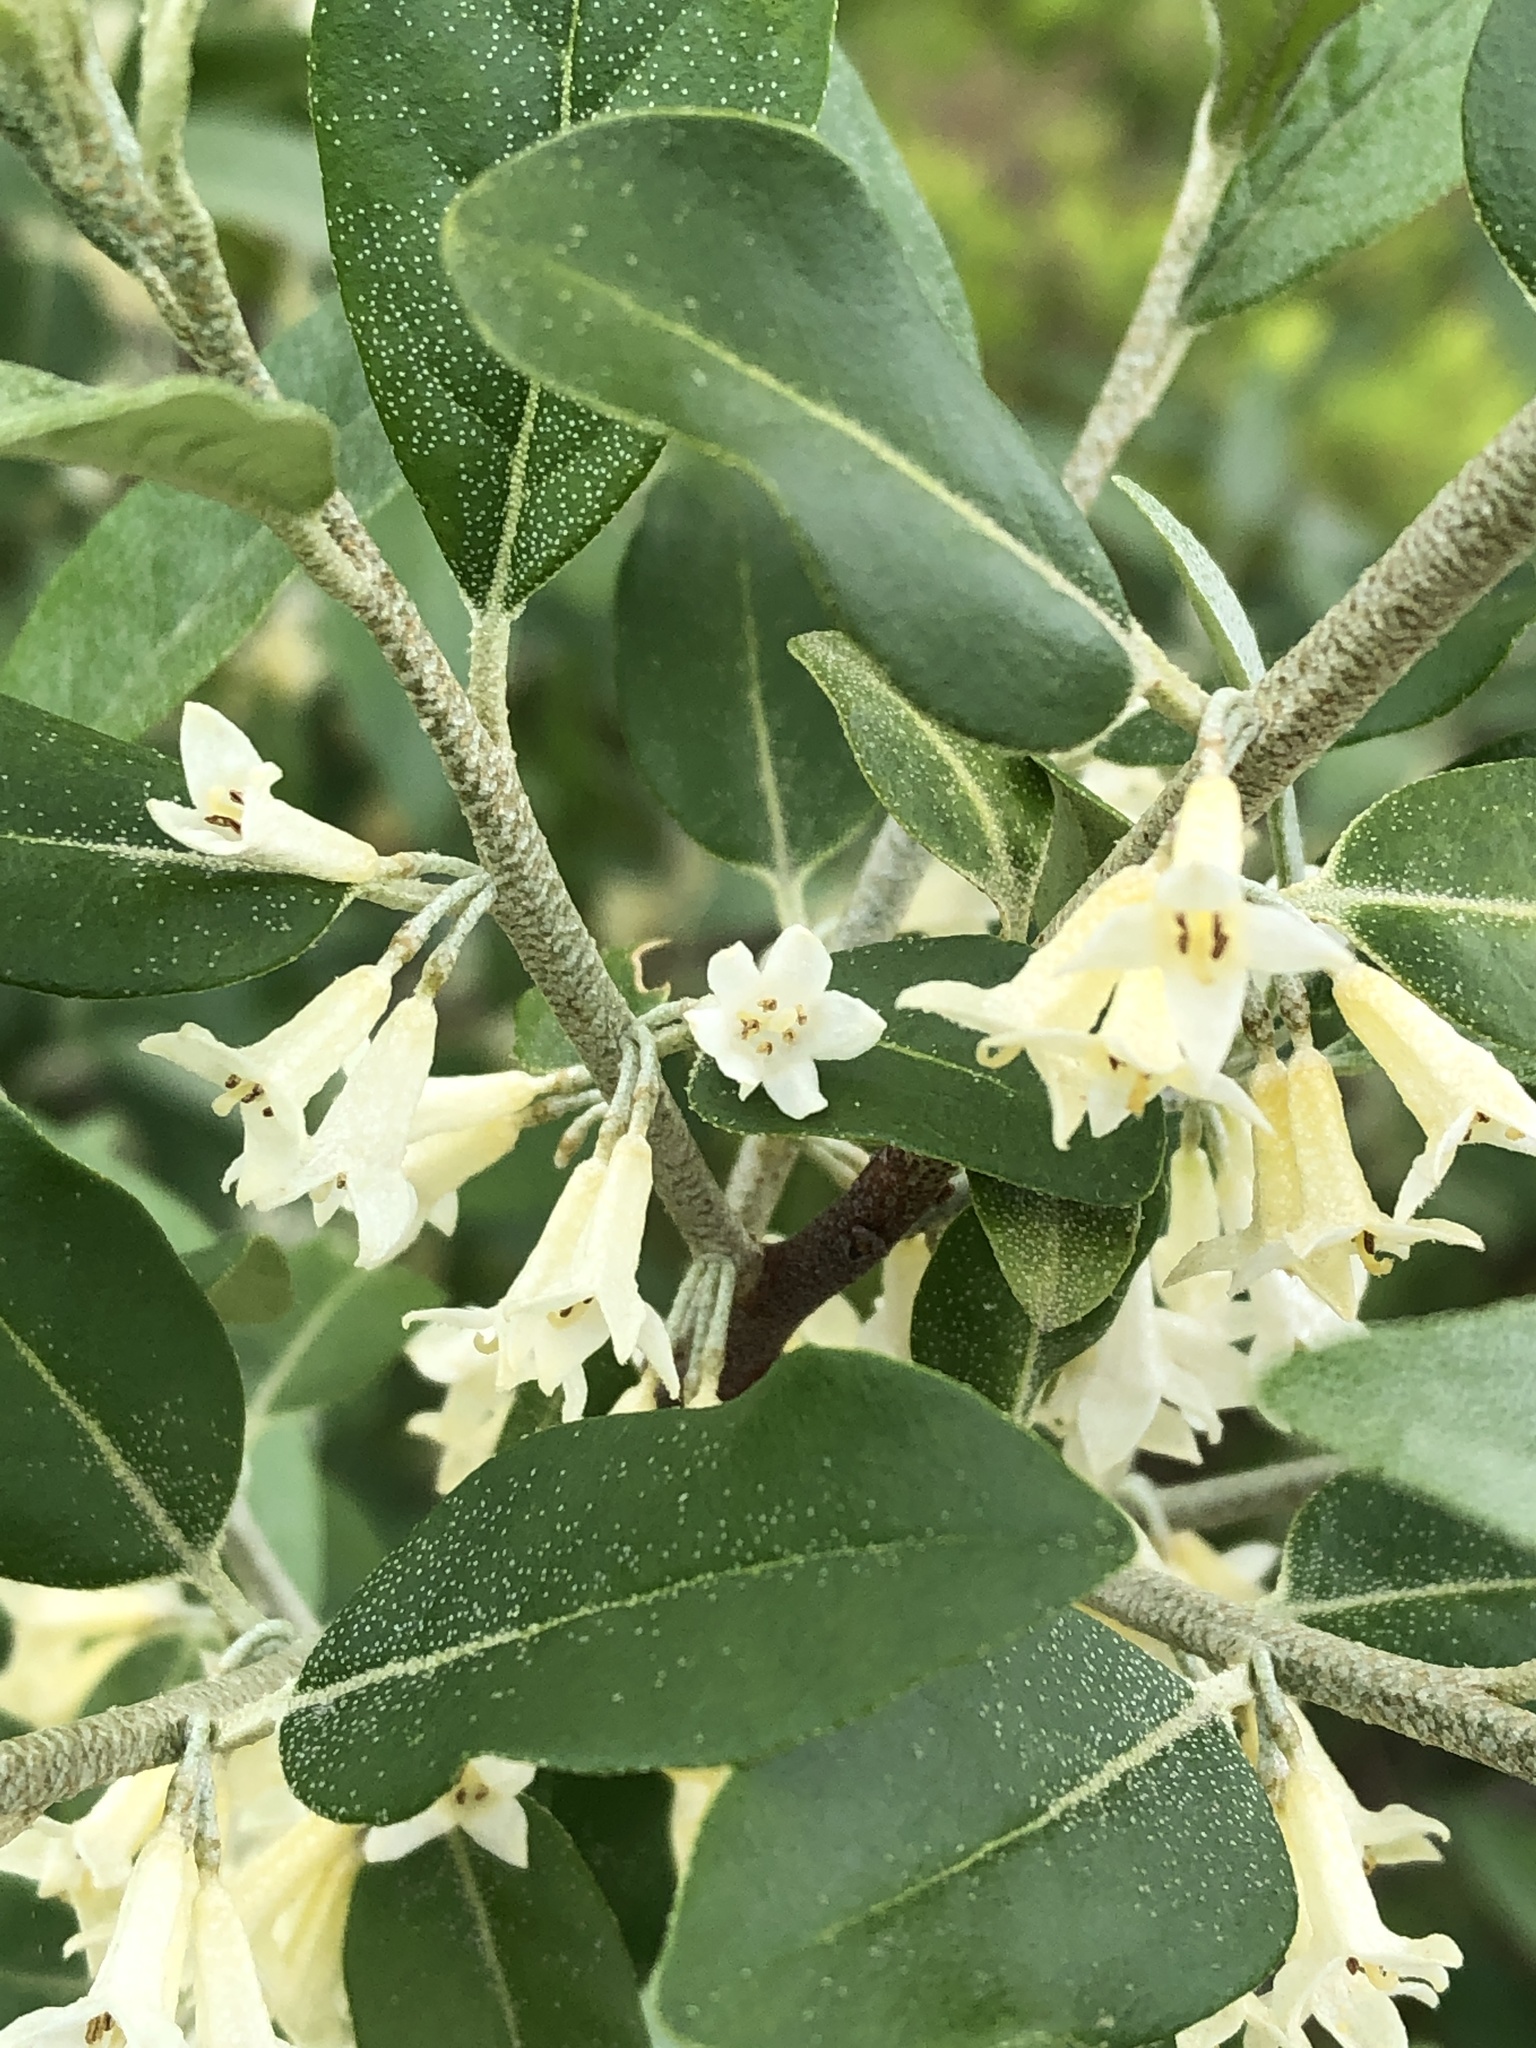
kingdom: Plantae
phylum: Tracheophyta
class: Magnoliopsida
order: Rosales
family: Elaeagnaceae
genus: Elaeagnus
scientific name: Elaeagnus umbellata
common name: Autumn olive
